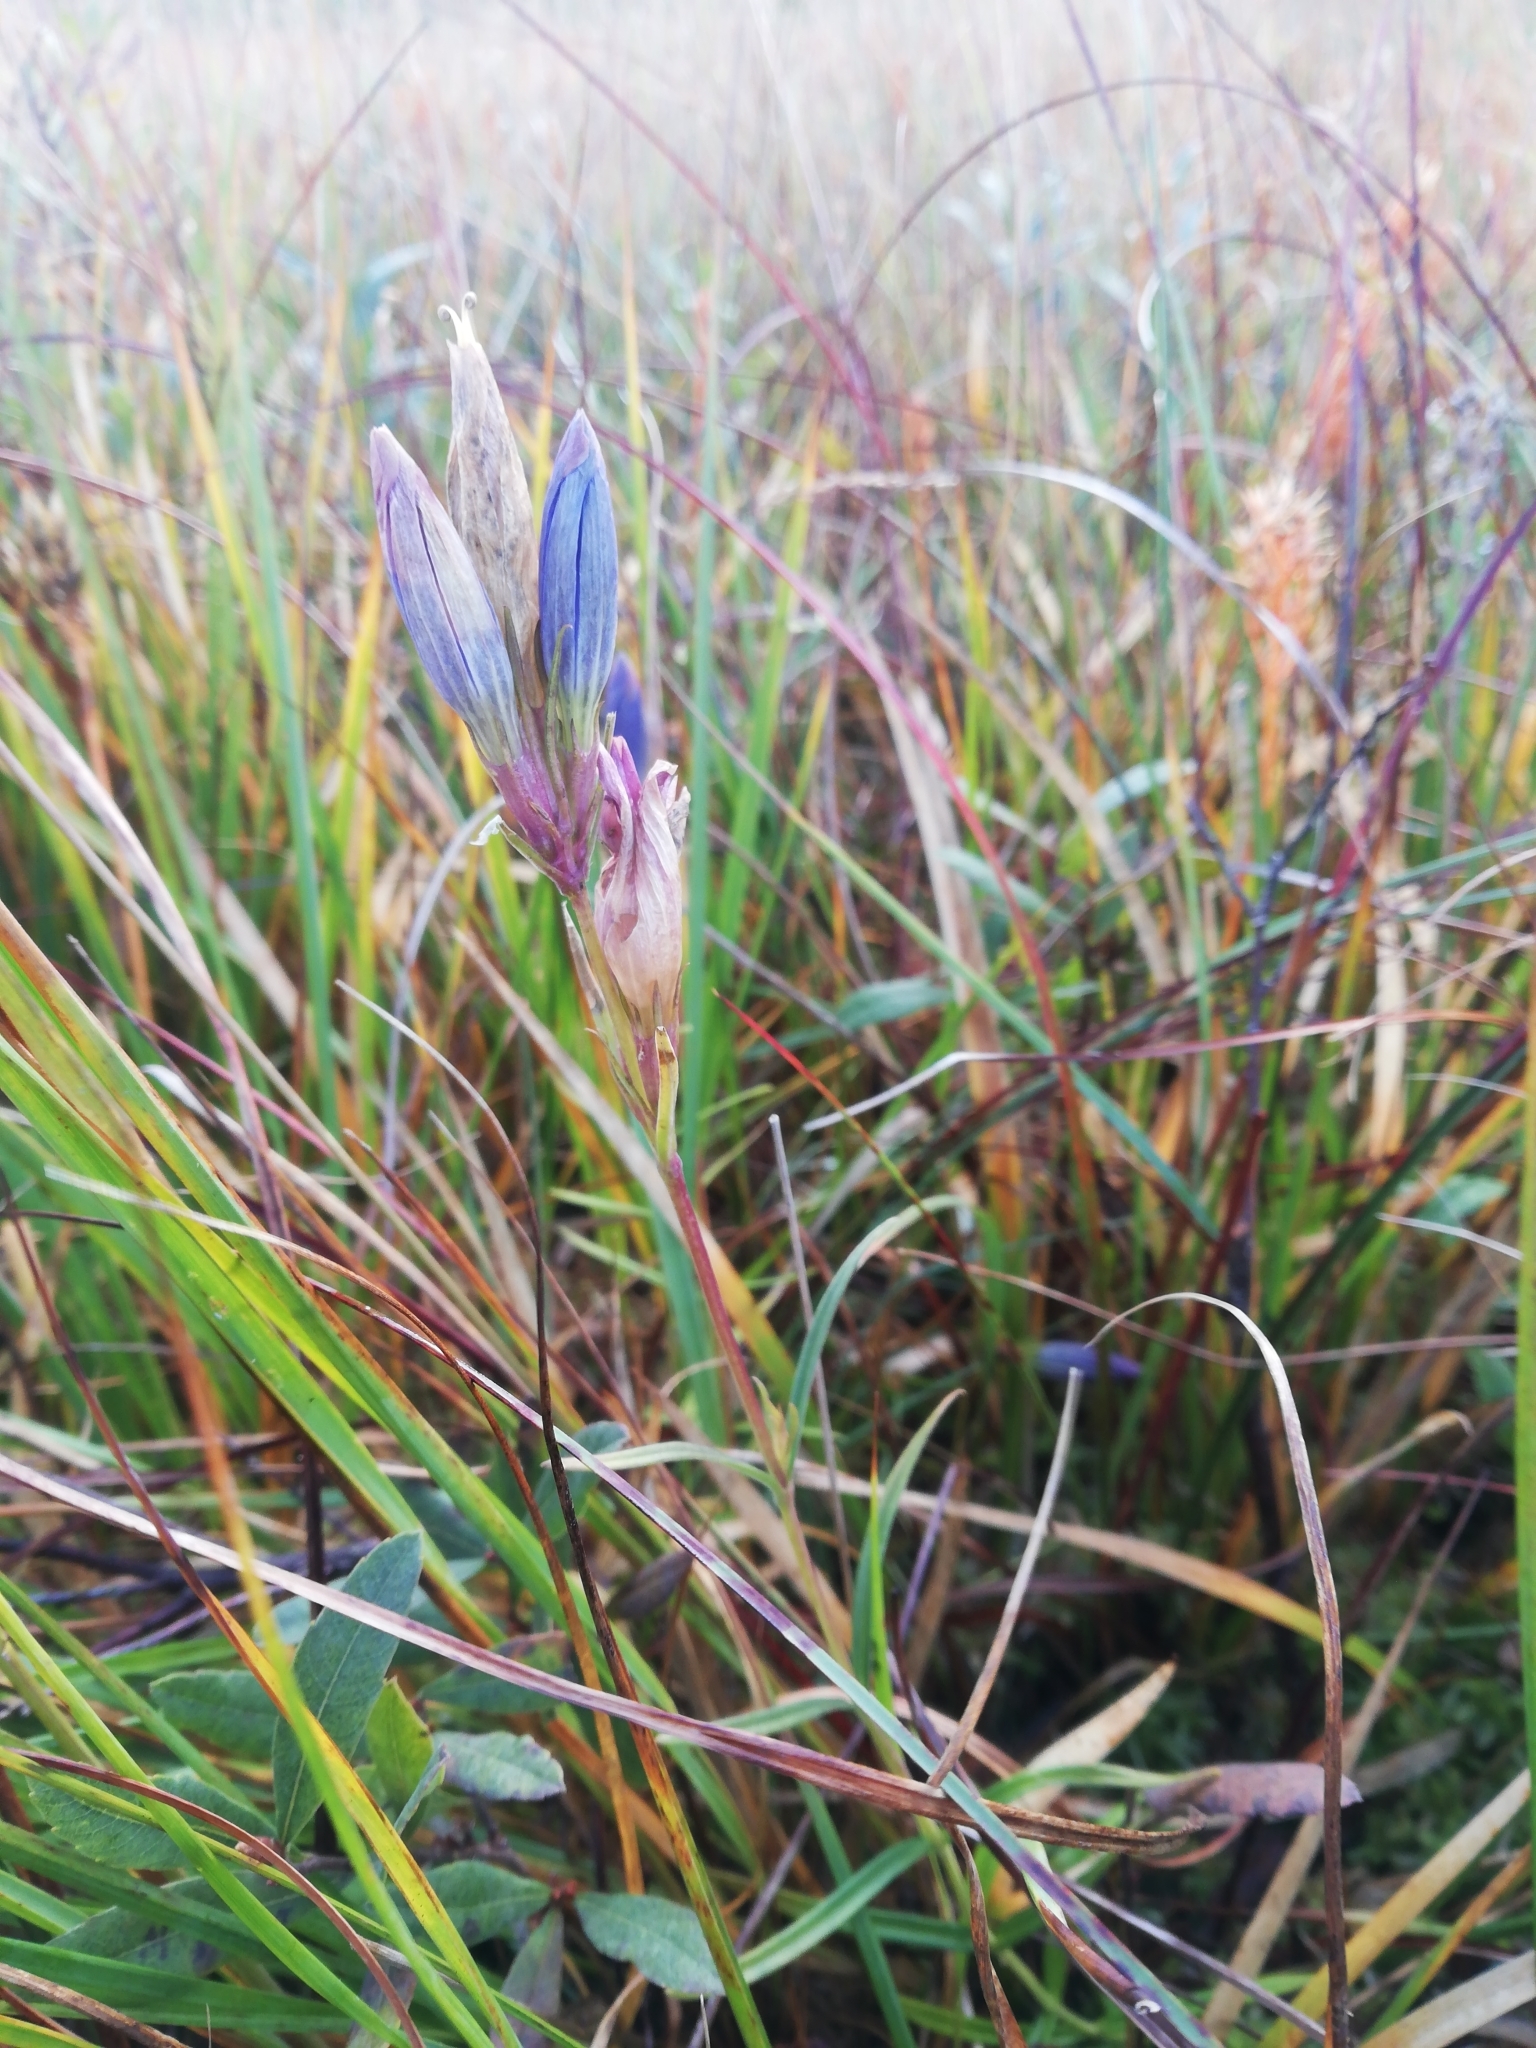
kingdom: Plantae
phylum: Tracheophyta
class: Magnoliopsida
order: Gentianales
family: Gentianaceae
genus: Gentiana
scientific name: Gentiana pneumonanthe
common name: Marsh gentian
